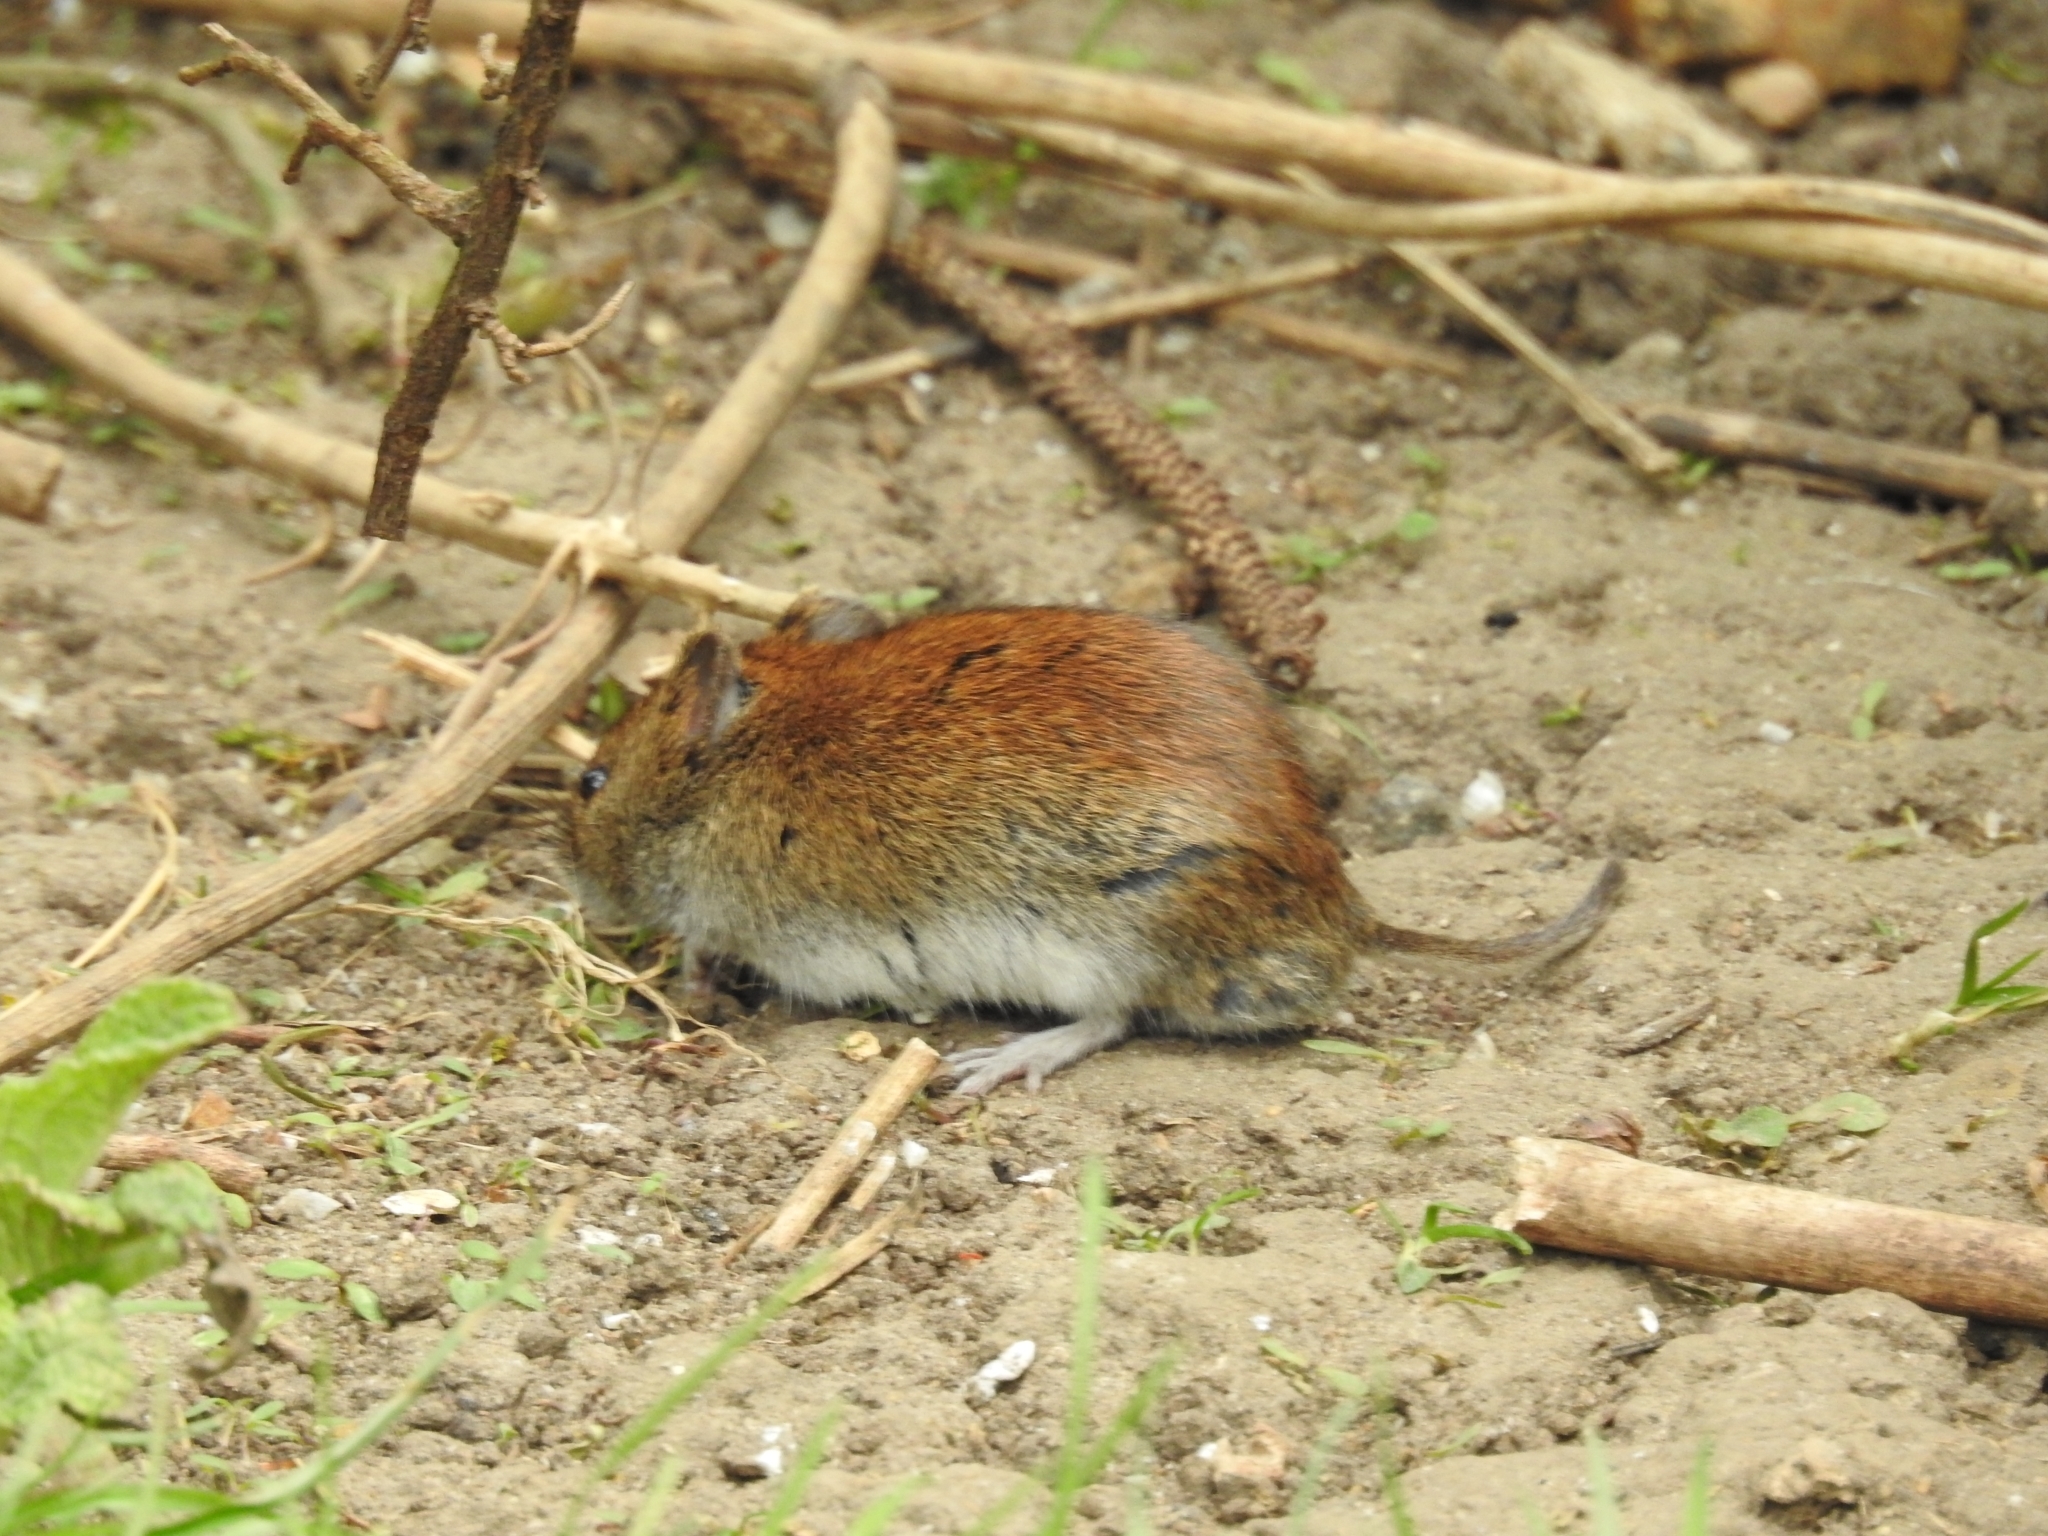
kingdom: Animalia
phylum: Chordata
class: Mammalia
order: Rodentia
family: Cricetidae
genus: Myodes
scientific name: Myodes glareolus
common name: Bank vole
